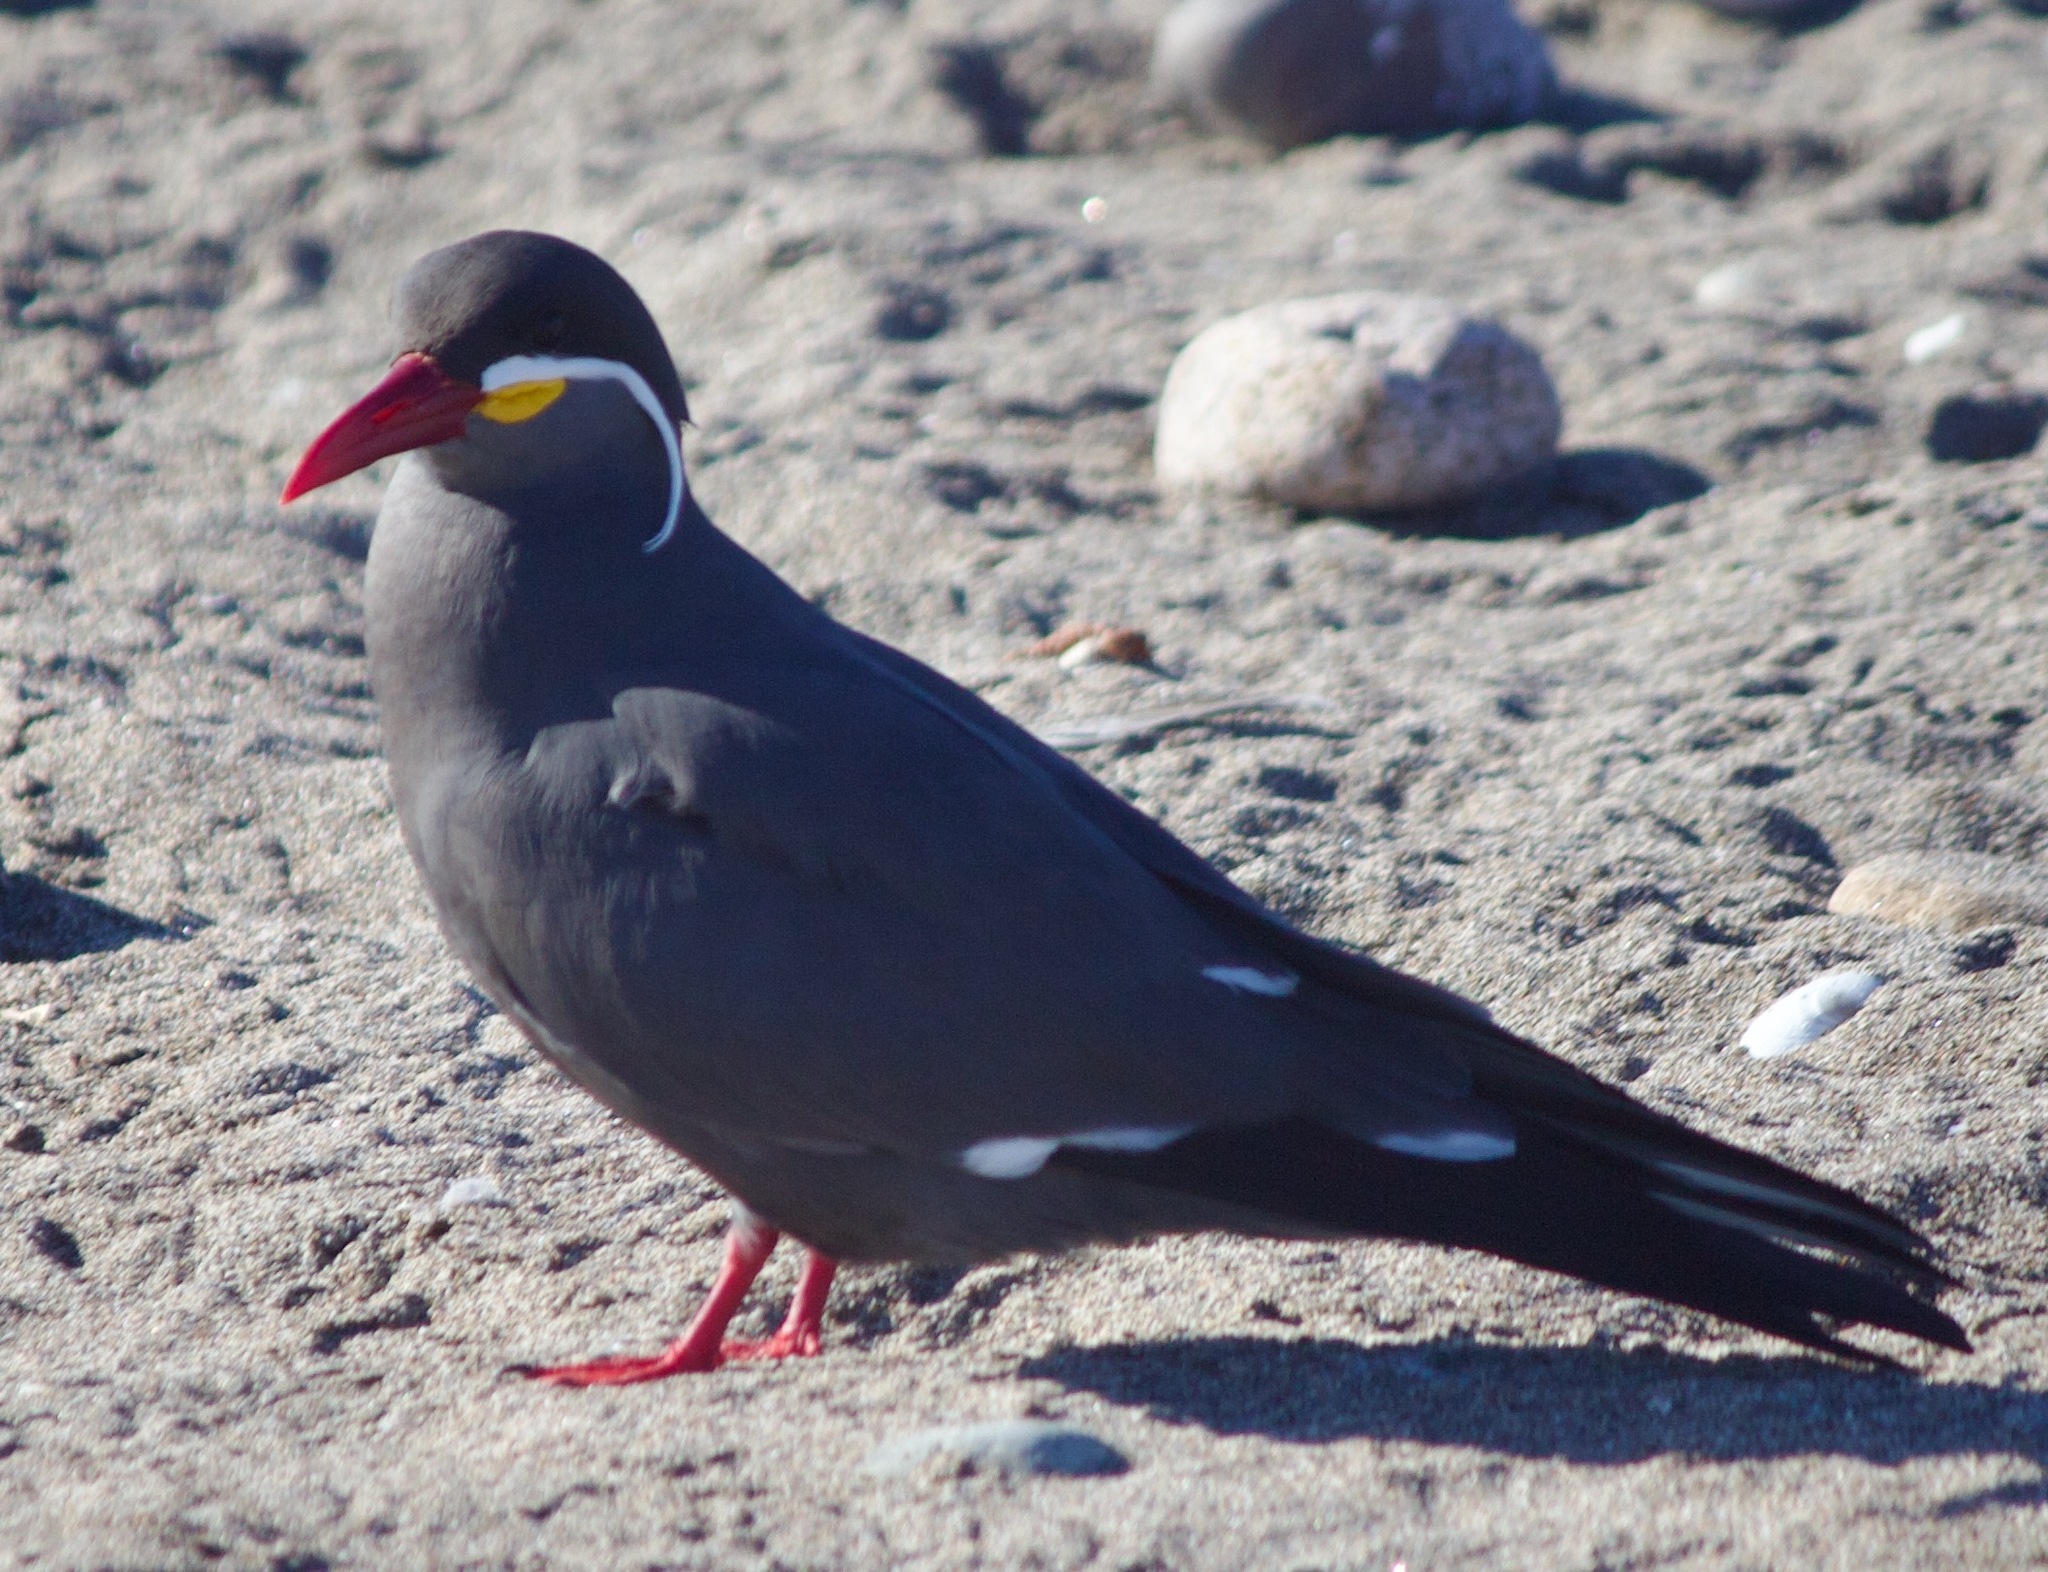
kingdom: Animalia
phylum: Chordata
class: Aves
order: Charadriiformes
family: Laridae
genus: Larosterna
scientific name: Larosterna inca
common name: Inca tern
